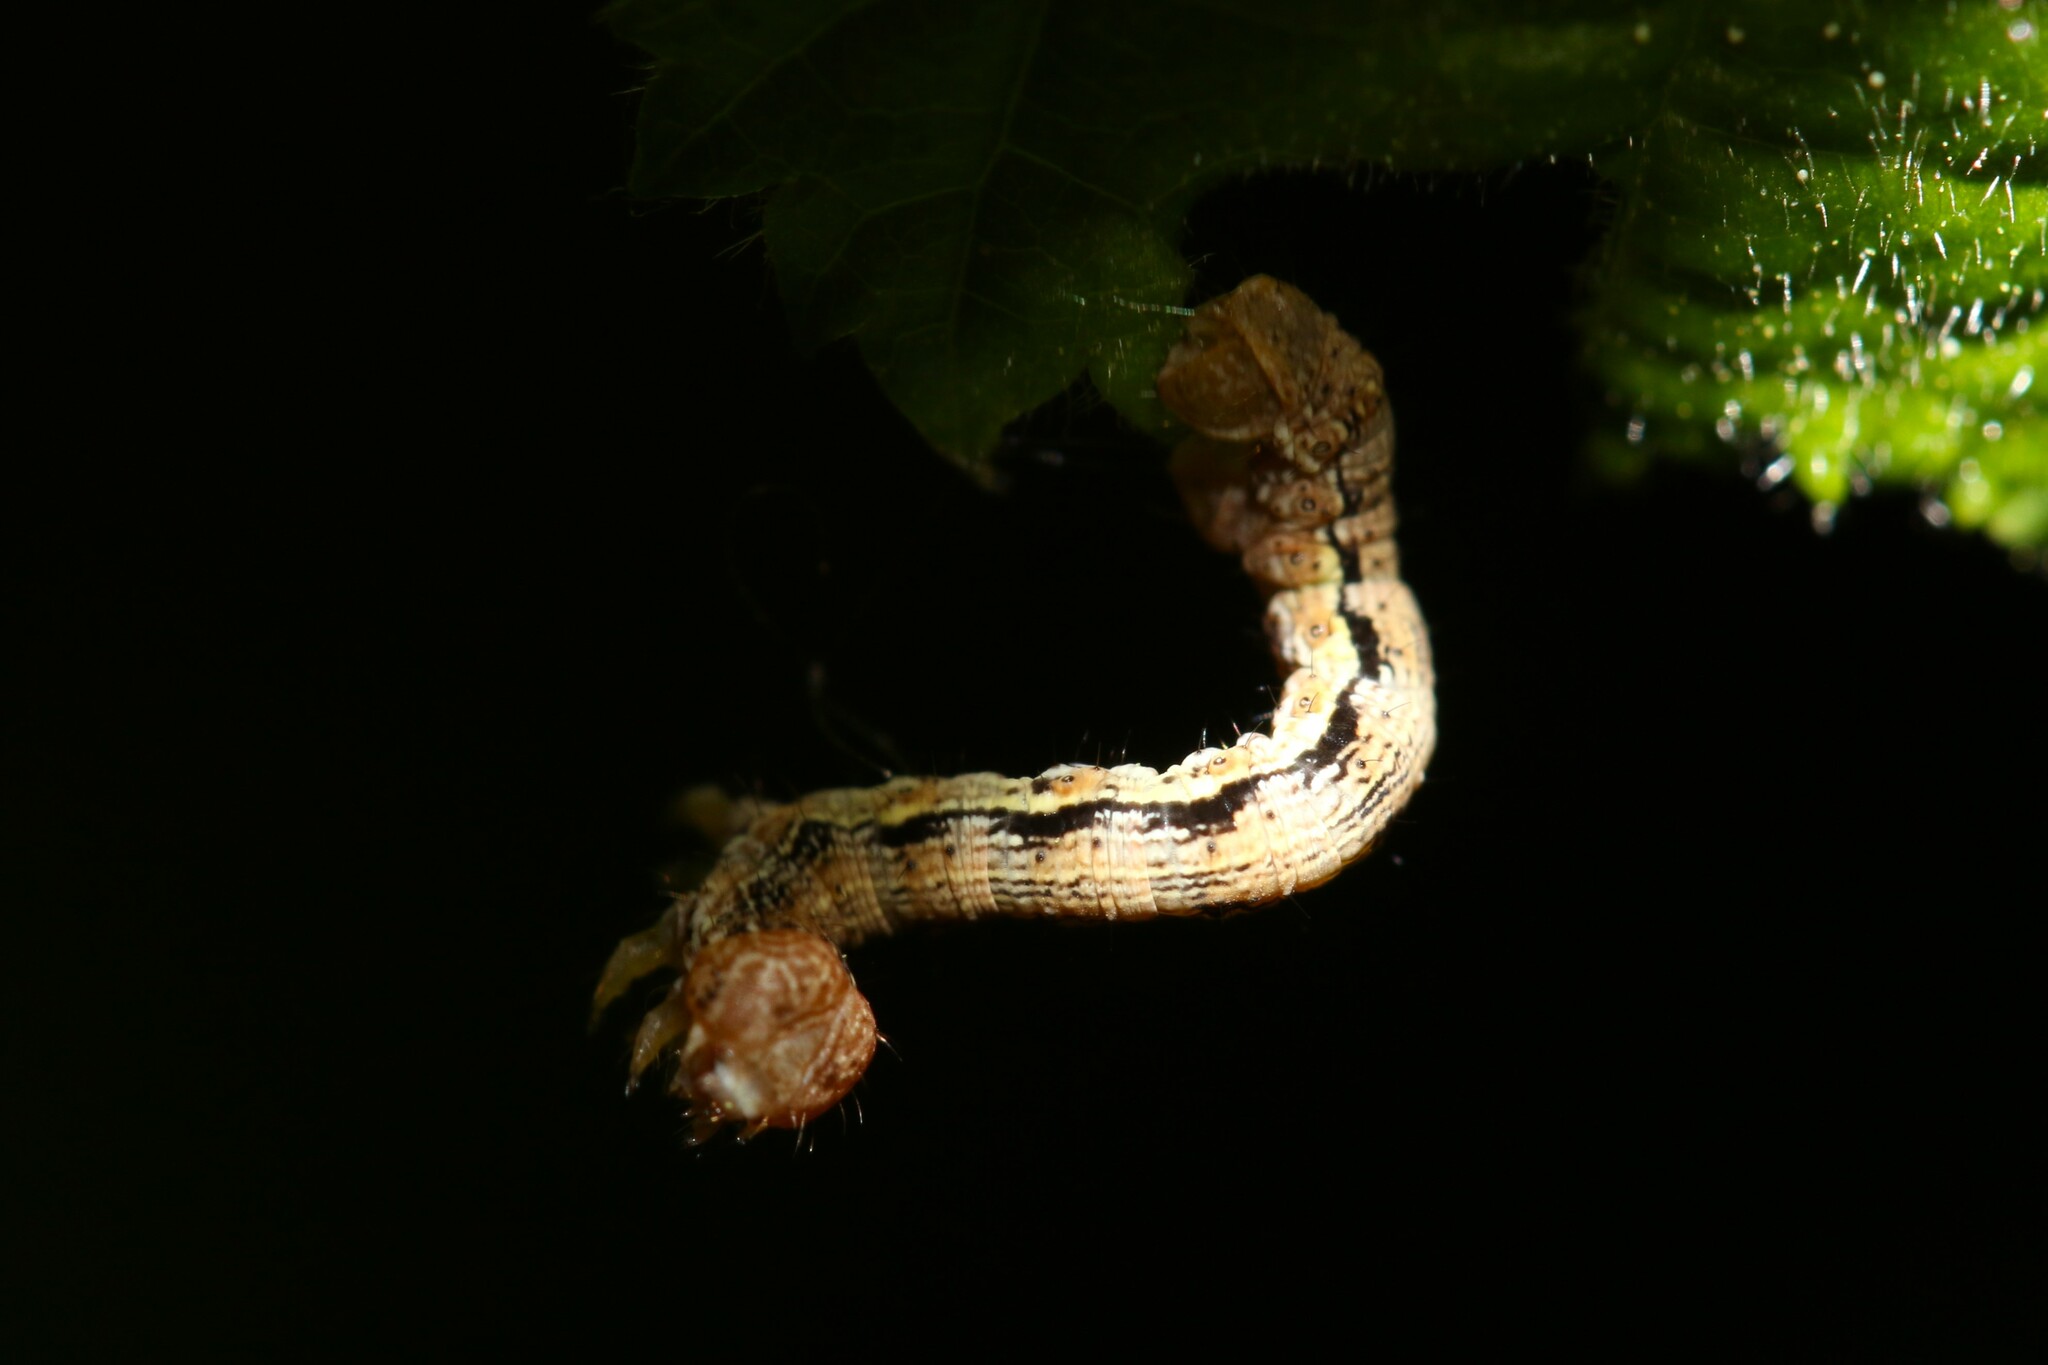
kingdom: Animalia
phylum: Arthropoda
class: Insecta
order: Lepidoptera
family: Geometridae
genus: Erannis
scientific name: Erannis defoliaria
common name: Mottled umber
